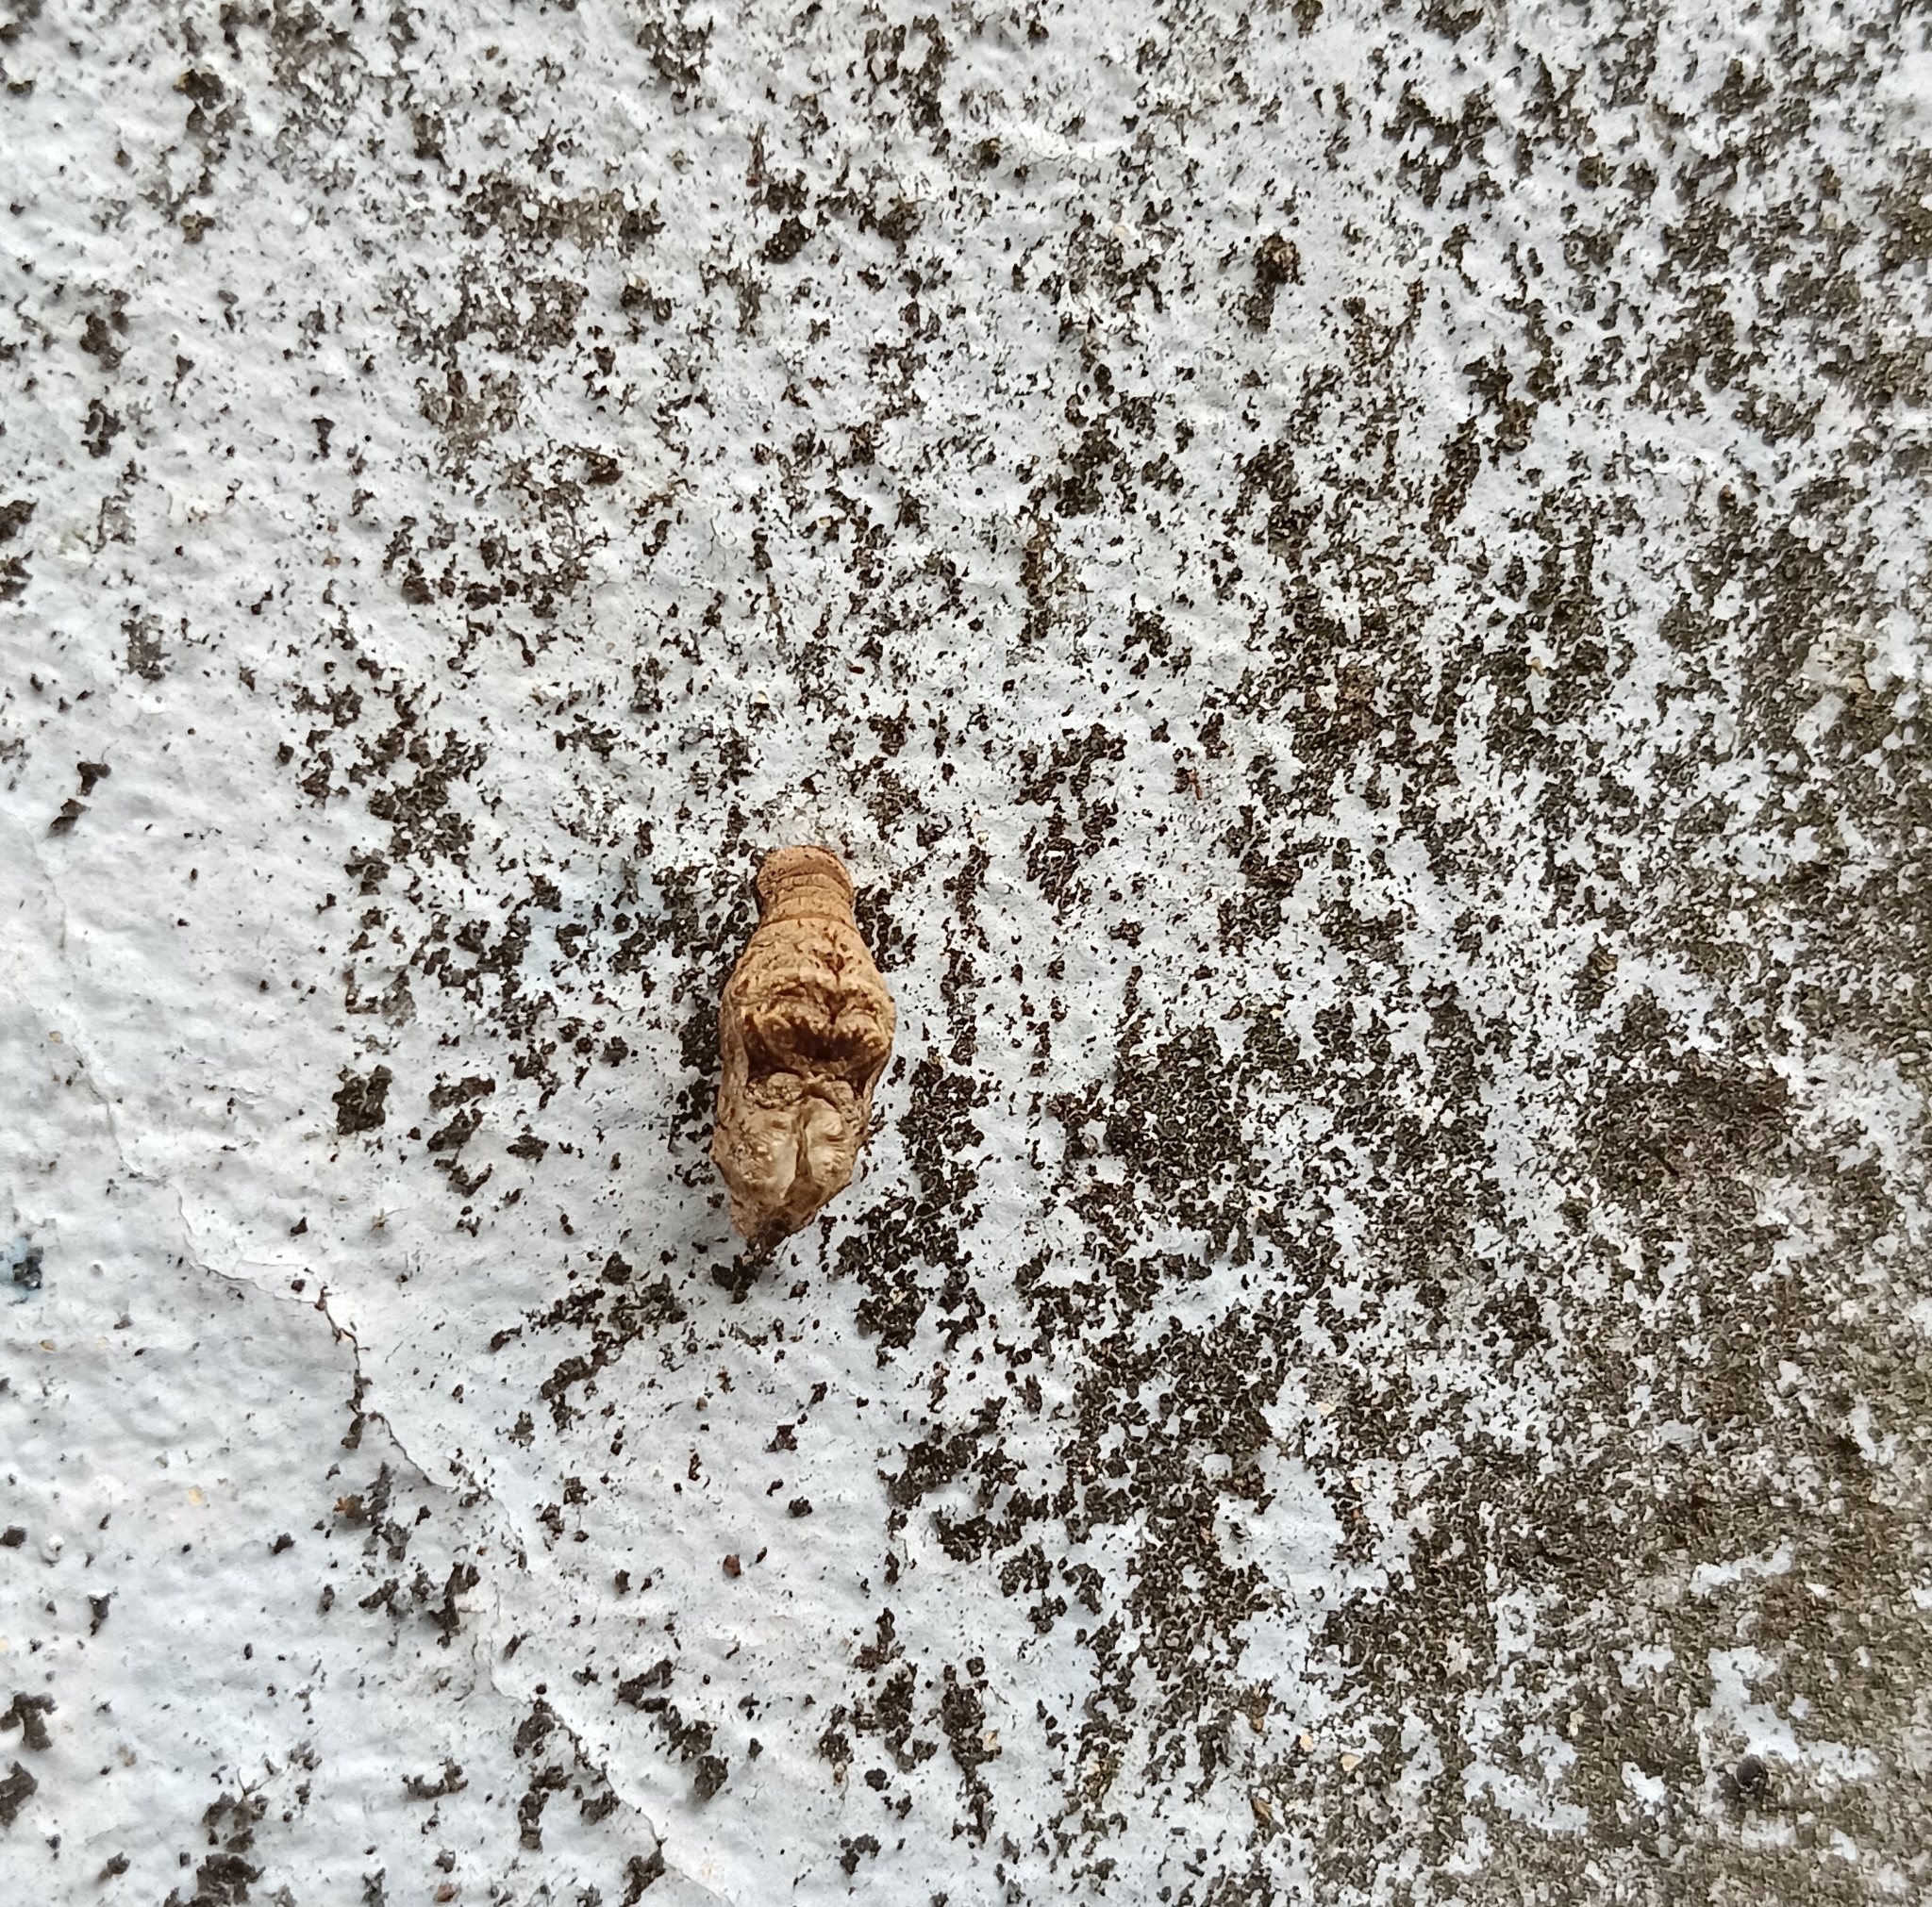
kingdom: Animalia
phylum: Arthropoda
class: Insecta
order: Lepidoptera
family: Lycaenidae
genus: Tajuria
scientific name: Tajuria cippus
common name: Peacock royal
